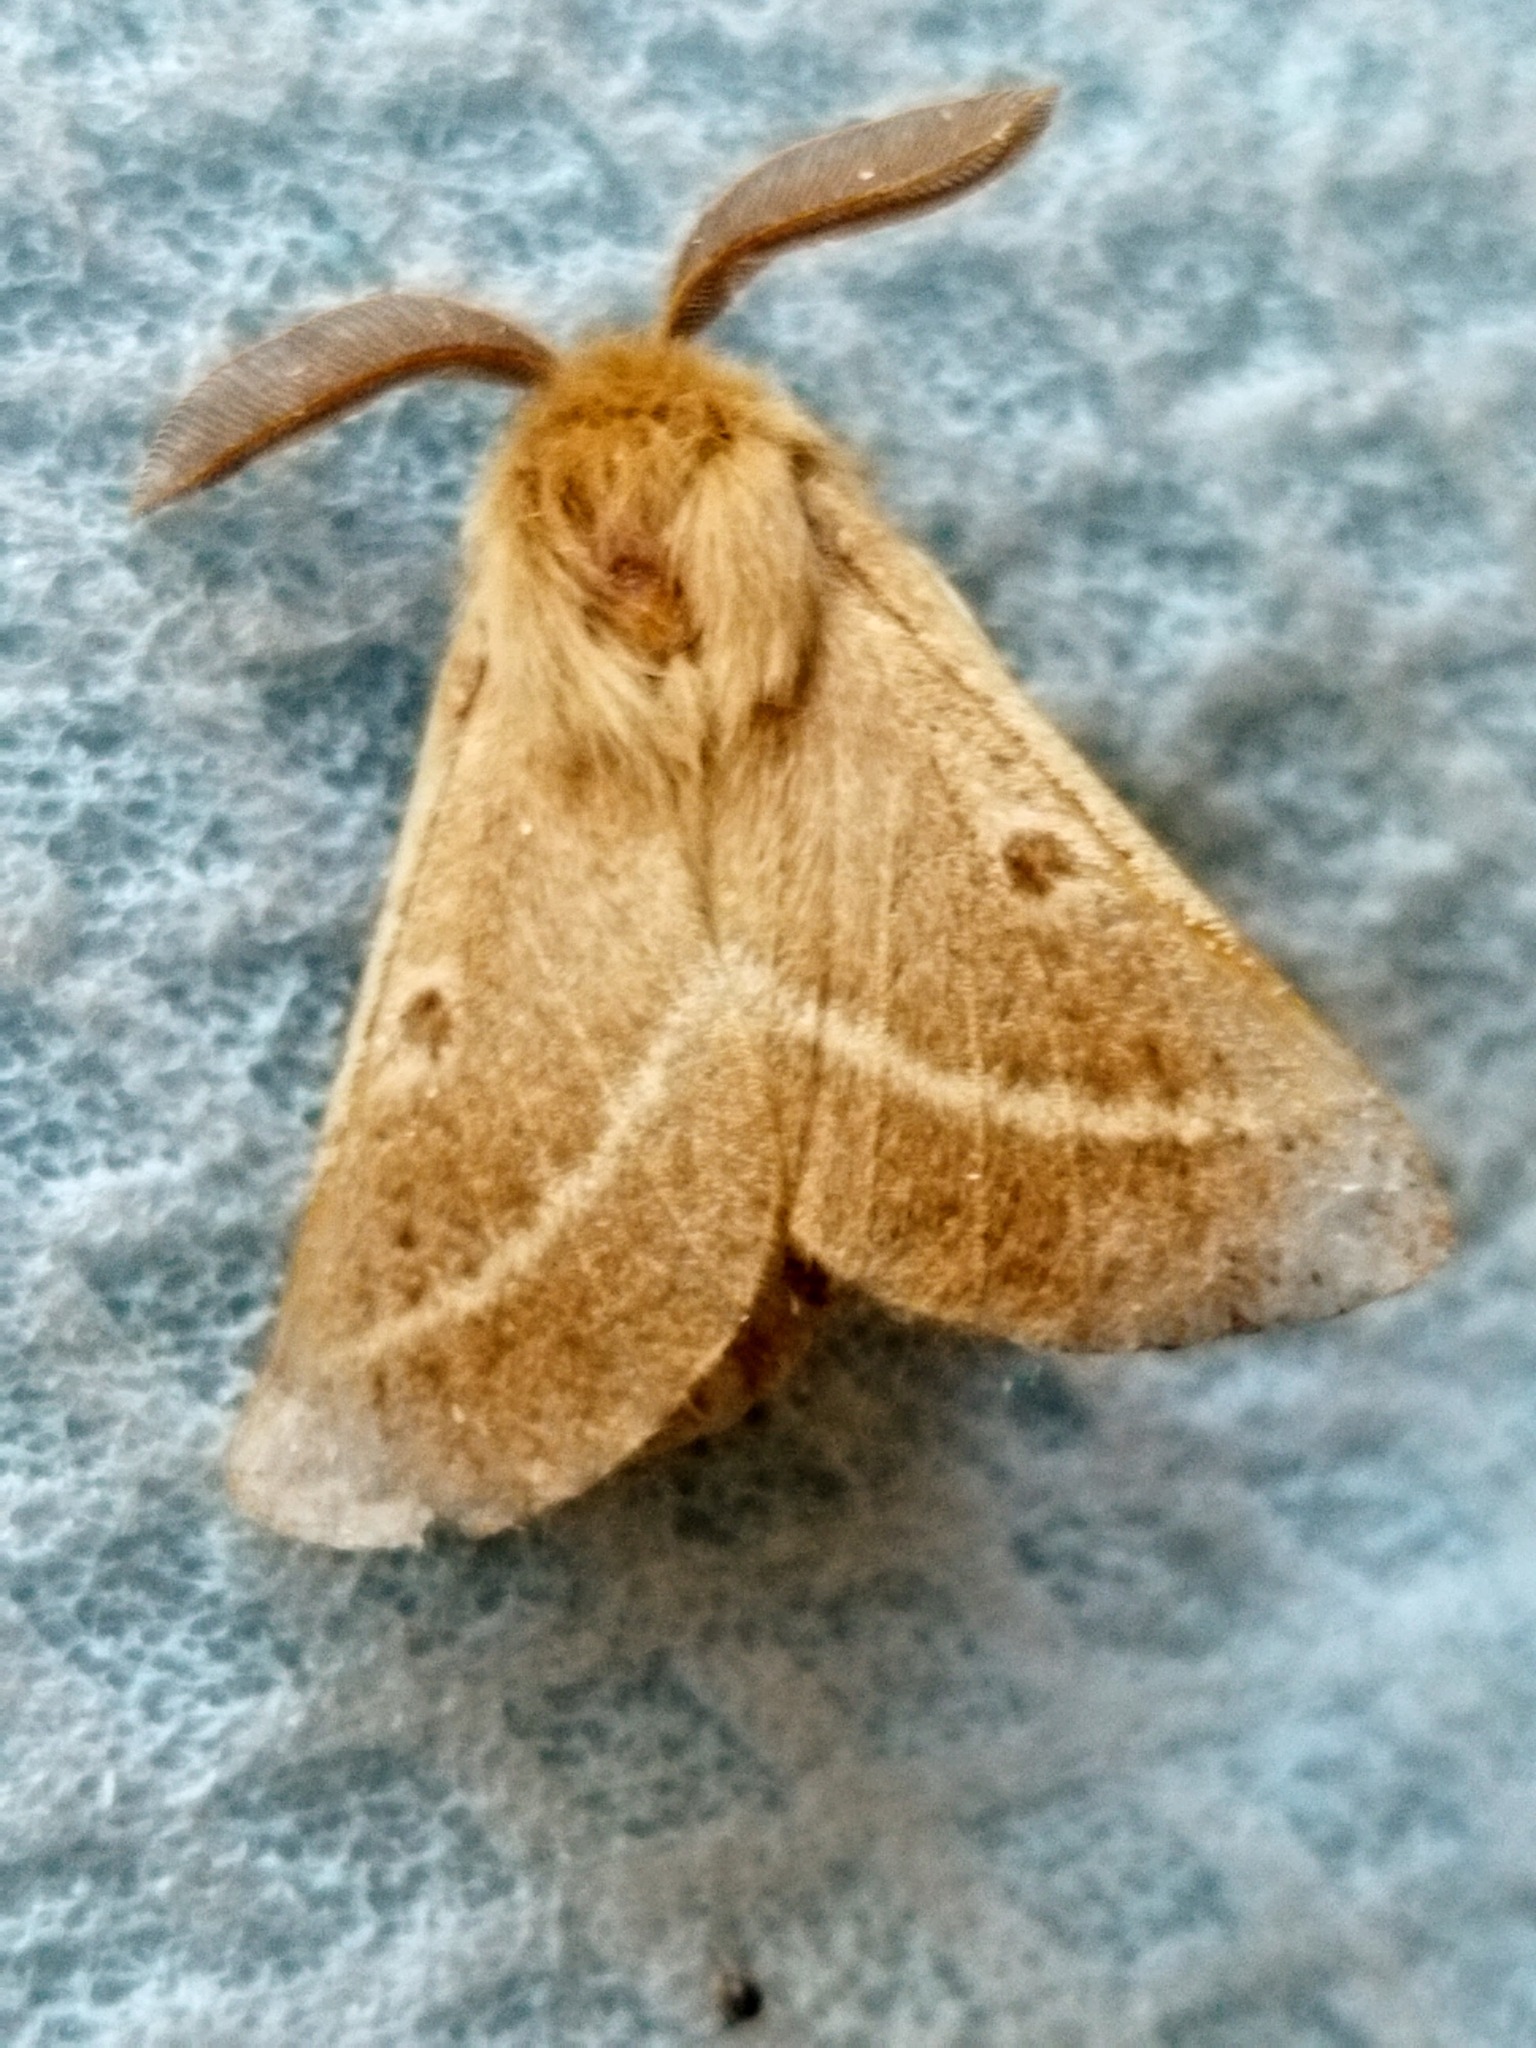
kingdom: Animalia
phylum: Arthropoda
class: Insecta
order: Lepidoptera
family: Brahmaeidae
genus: Lemonia
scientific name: Lemonia balcanica
